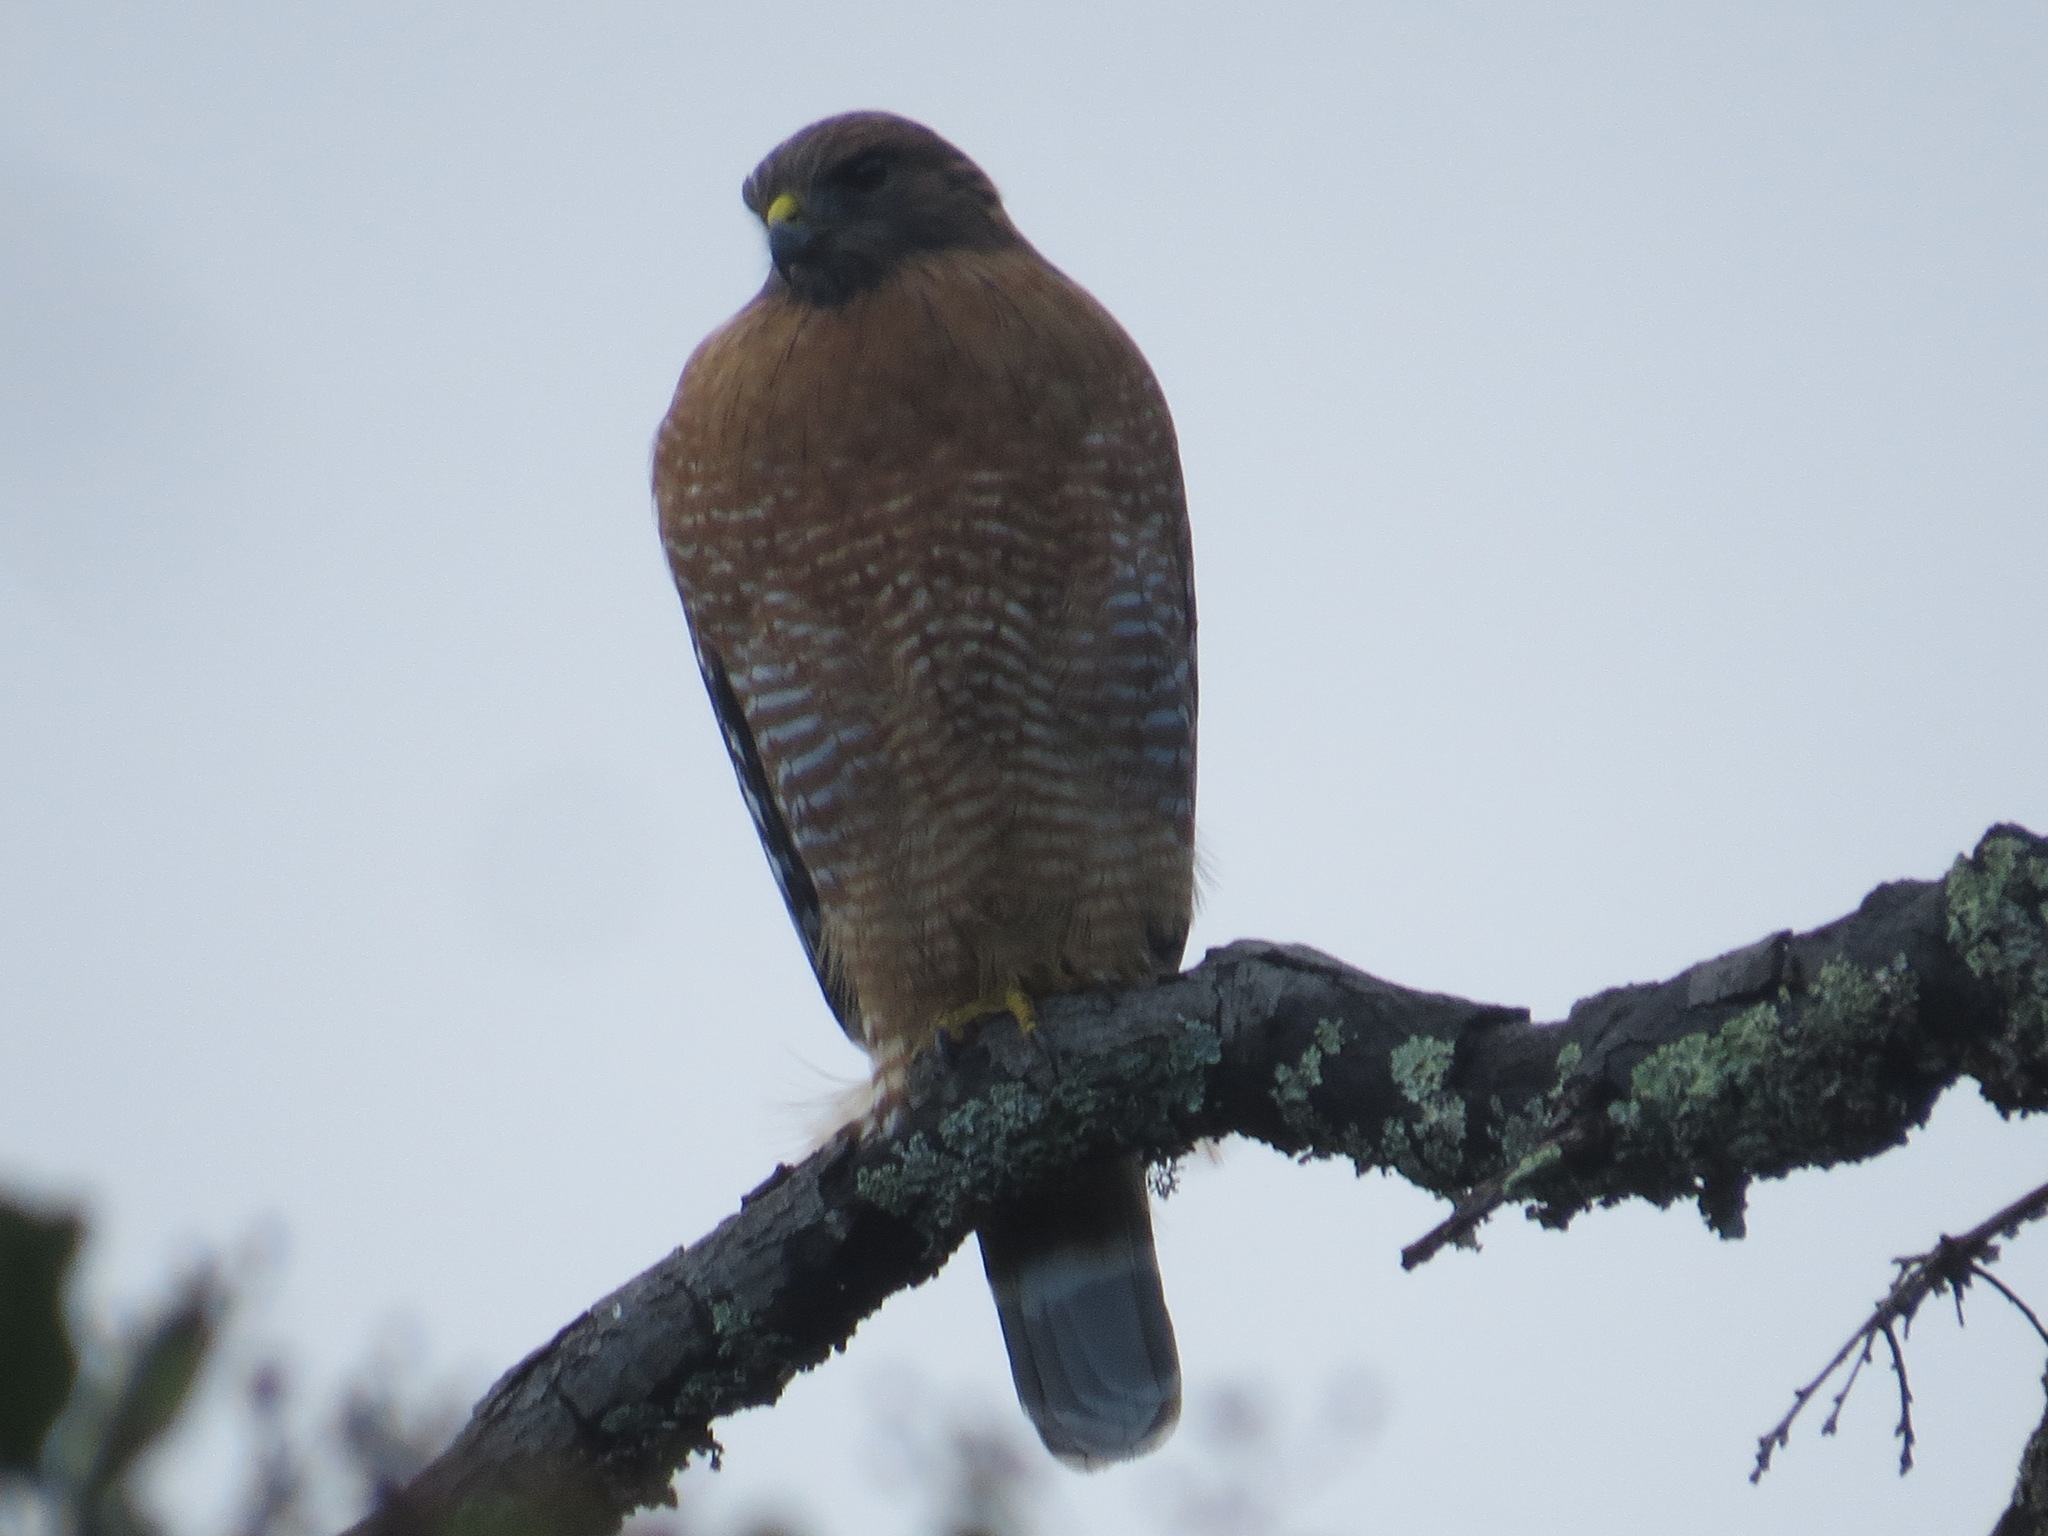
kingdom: Animalia
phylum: Chordata
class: Aves
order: Accipitriformes
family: Accipitridae
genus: Buteo
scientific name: Buteo lineatus
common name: Red-shouldered hawk
